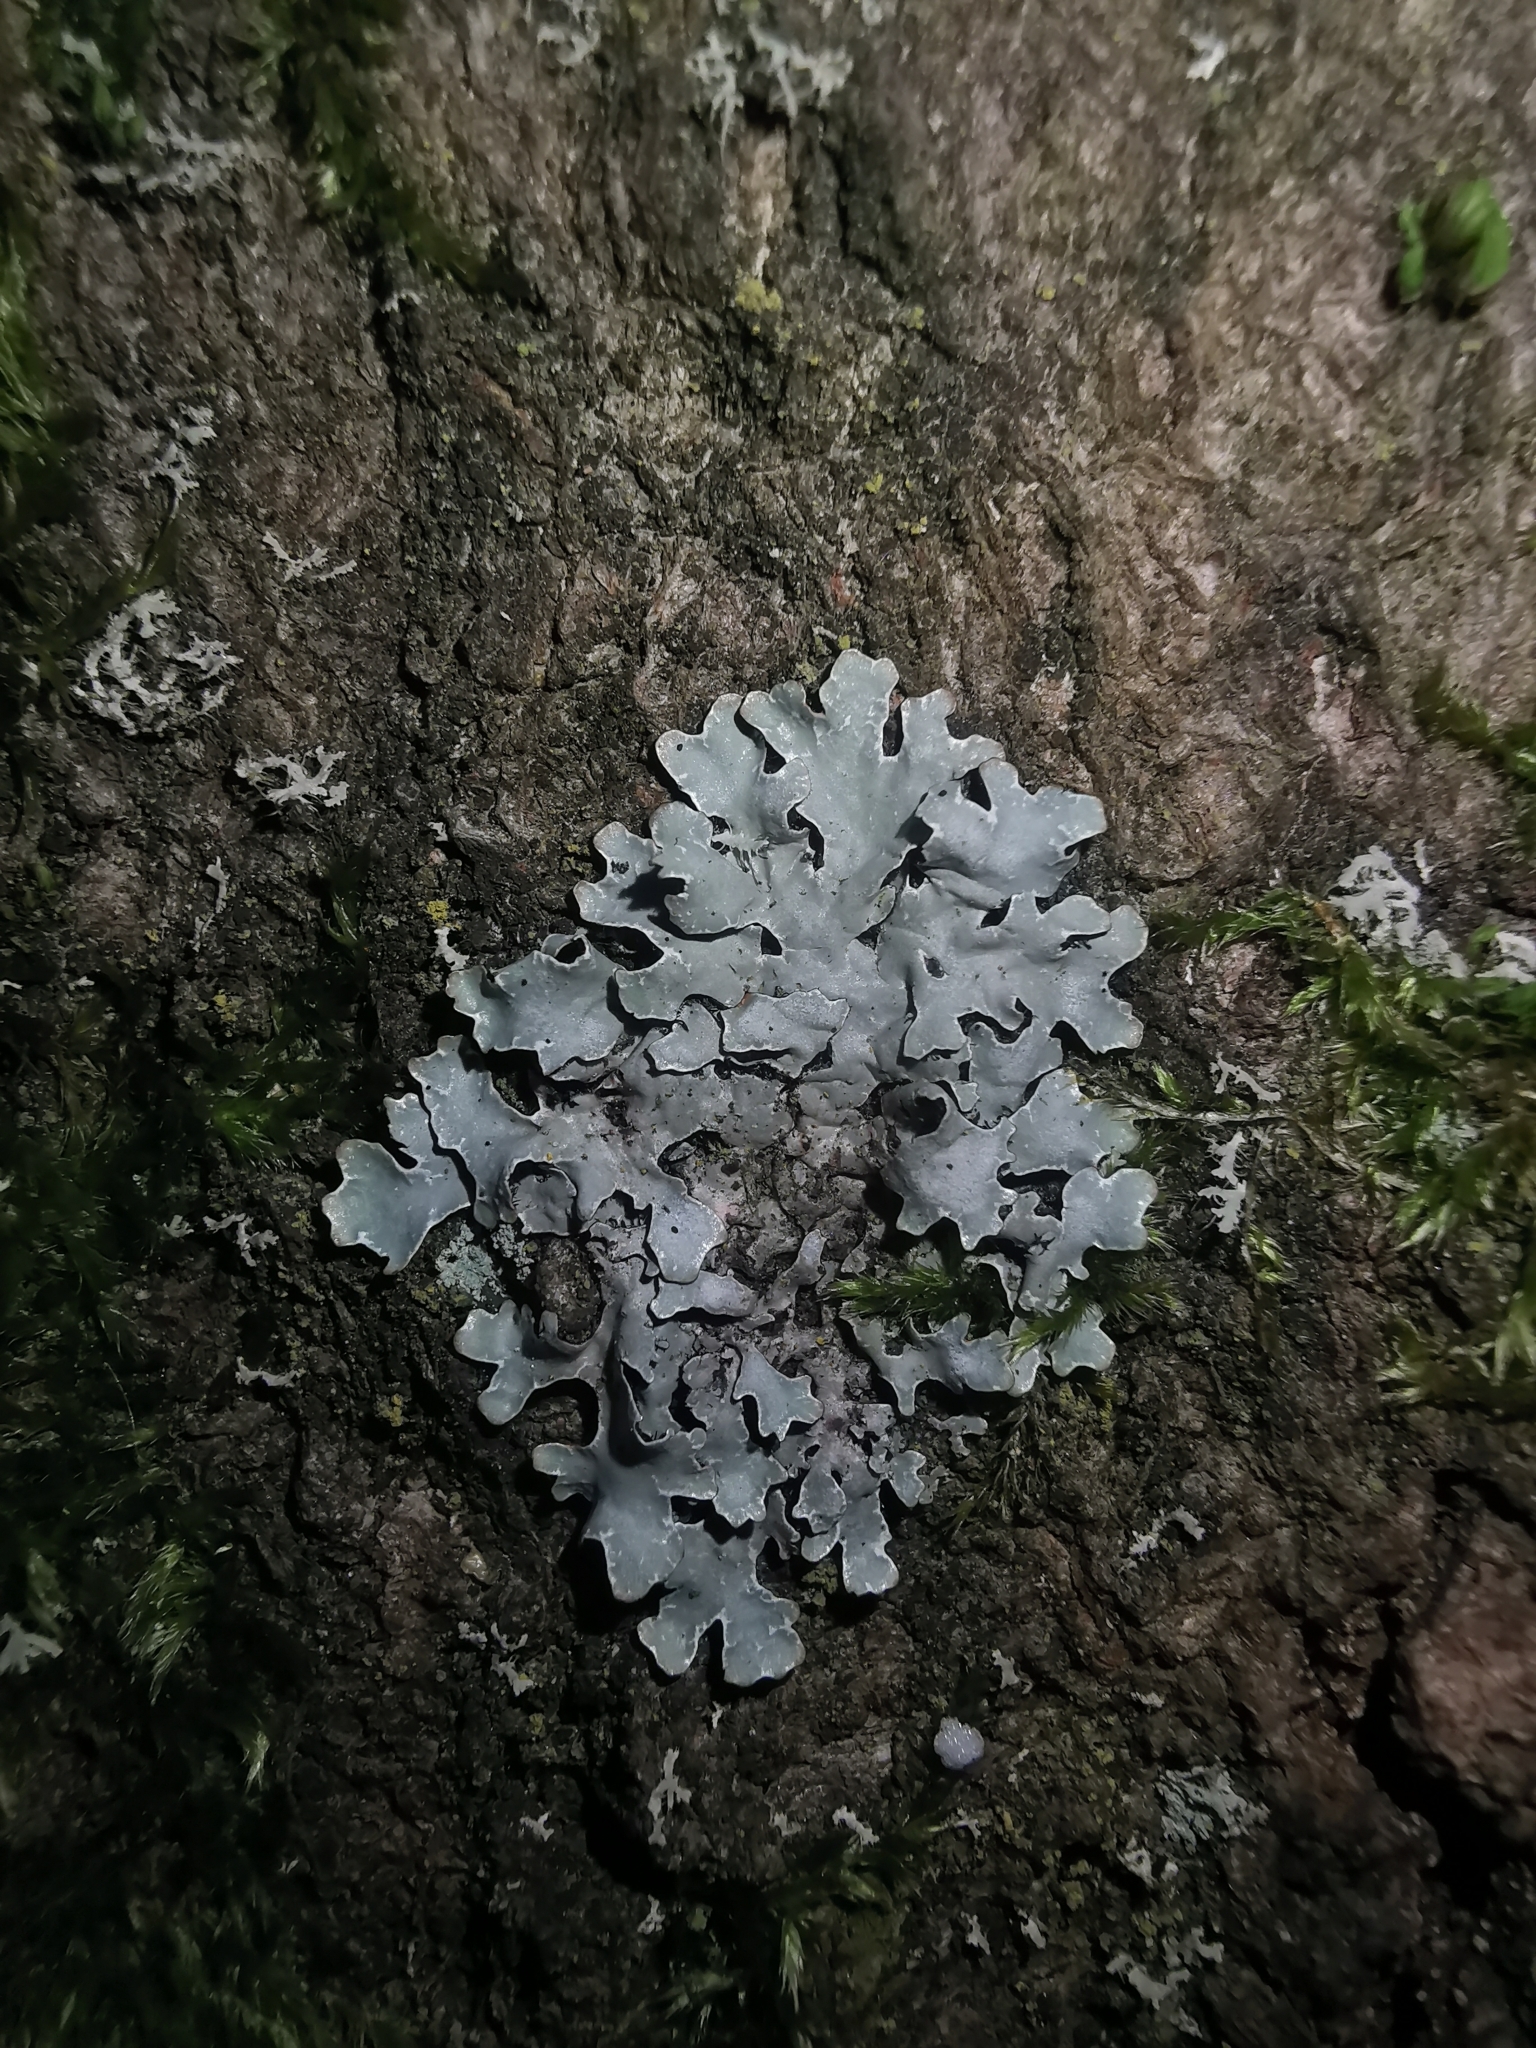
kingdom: Fungi
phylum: Ascomycota
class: Lecanoromycetes
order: Lecanorales
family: Parmeliaceae
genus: Parmelia
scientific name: Parmelia sulcata
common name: Netted shield lichen
